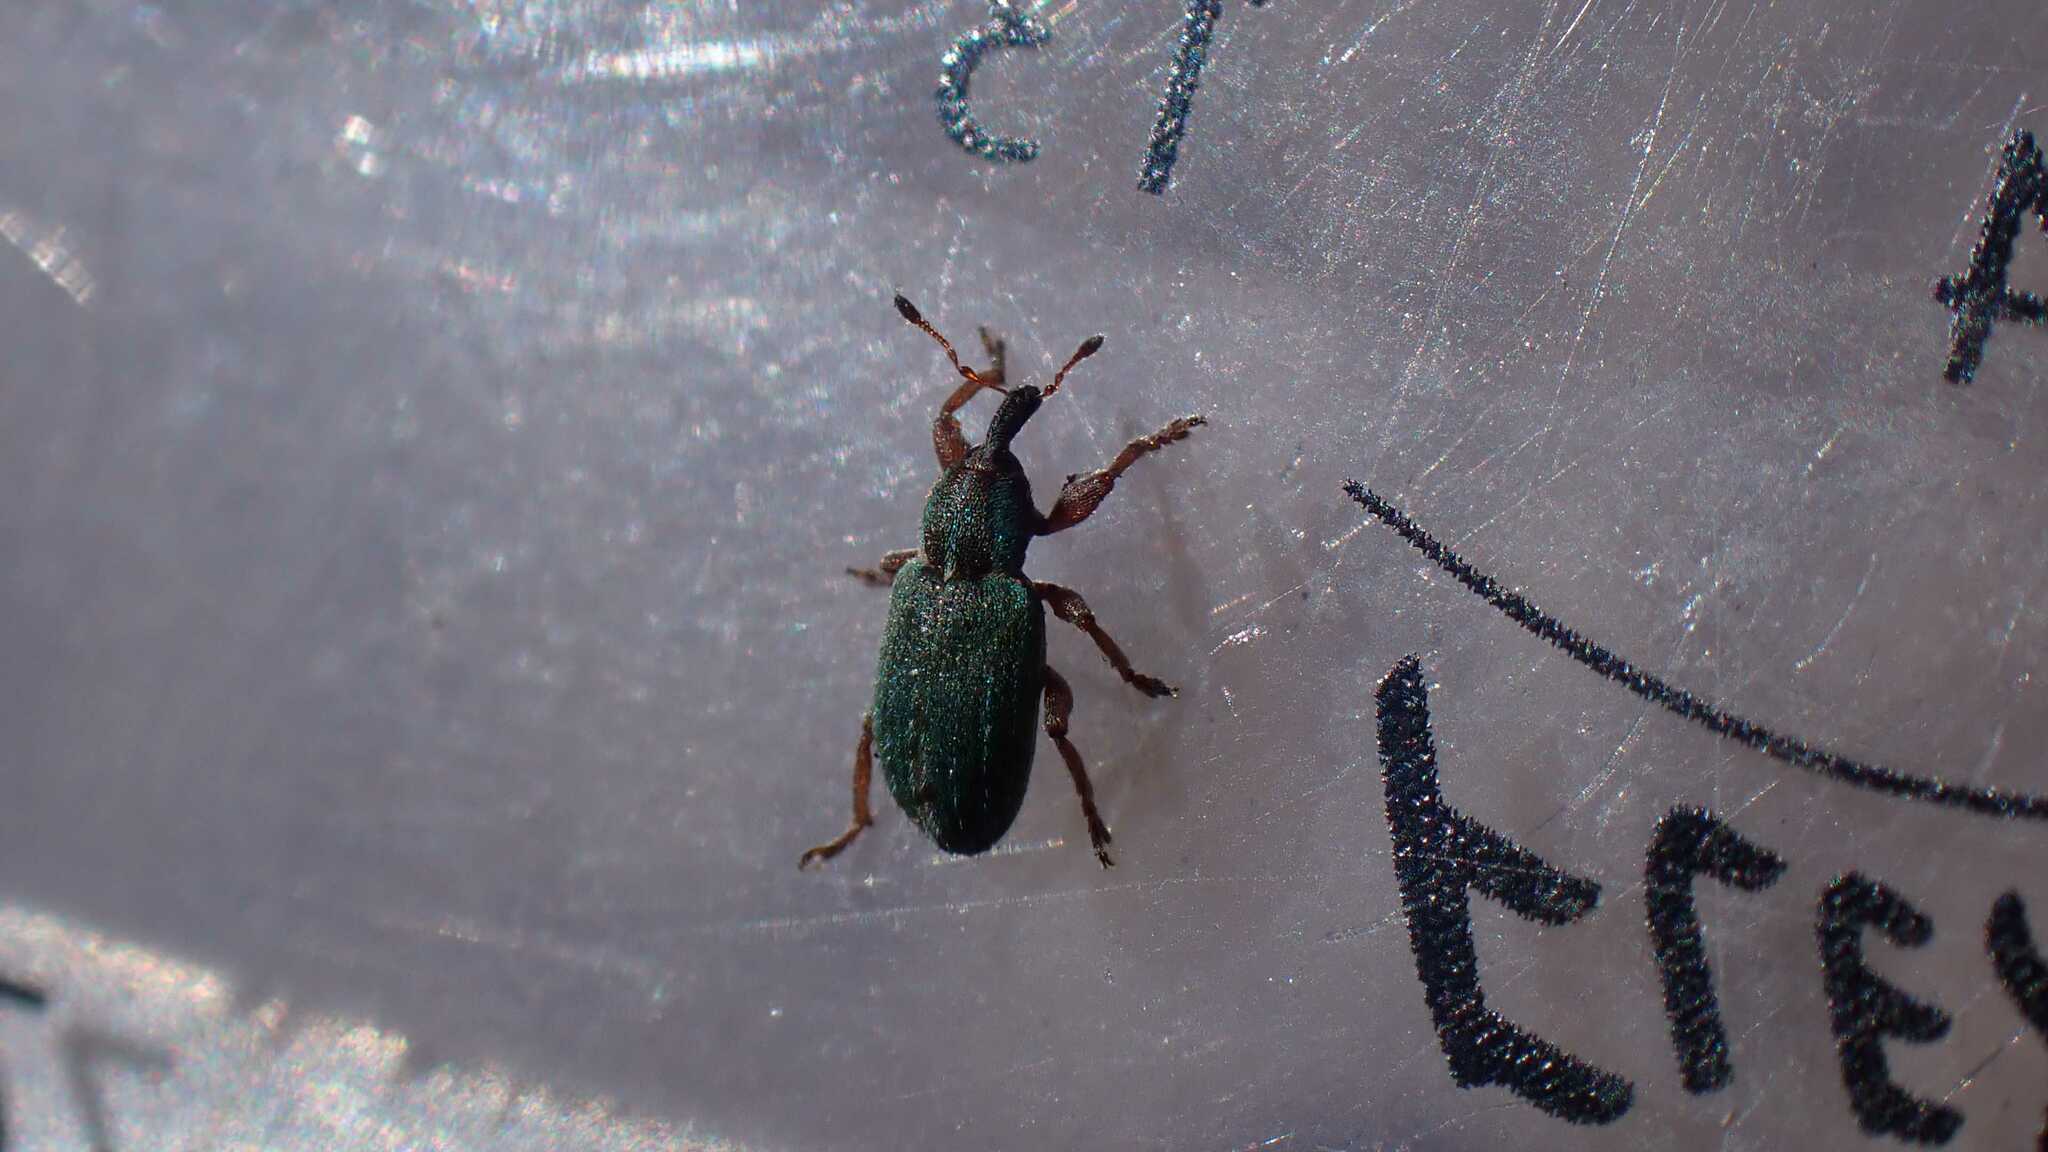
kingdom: Animalia
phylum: Arthropoda
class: Insecta
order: Coleoptera
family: Curculionidae
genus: Hypera
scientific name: Hypera nigrirostris
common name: Black-beaked green weevil
